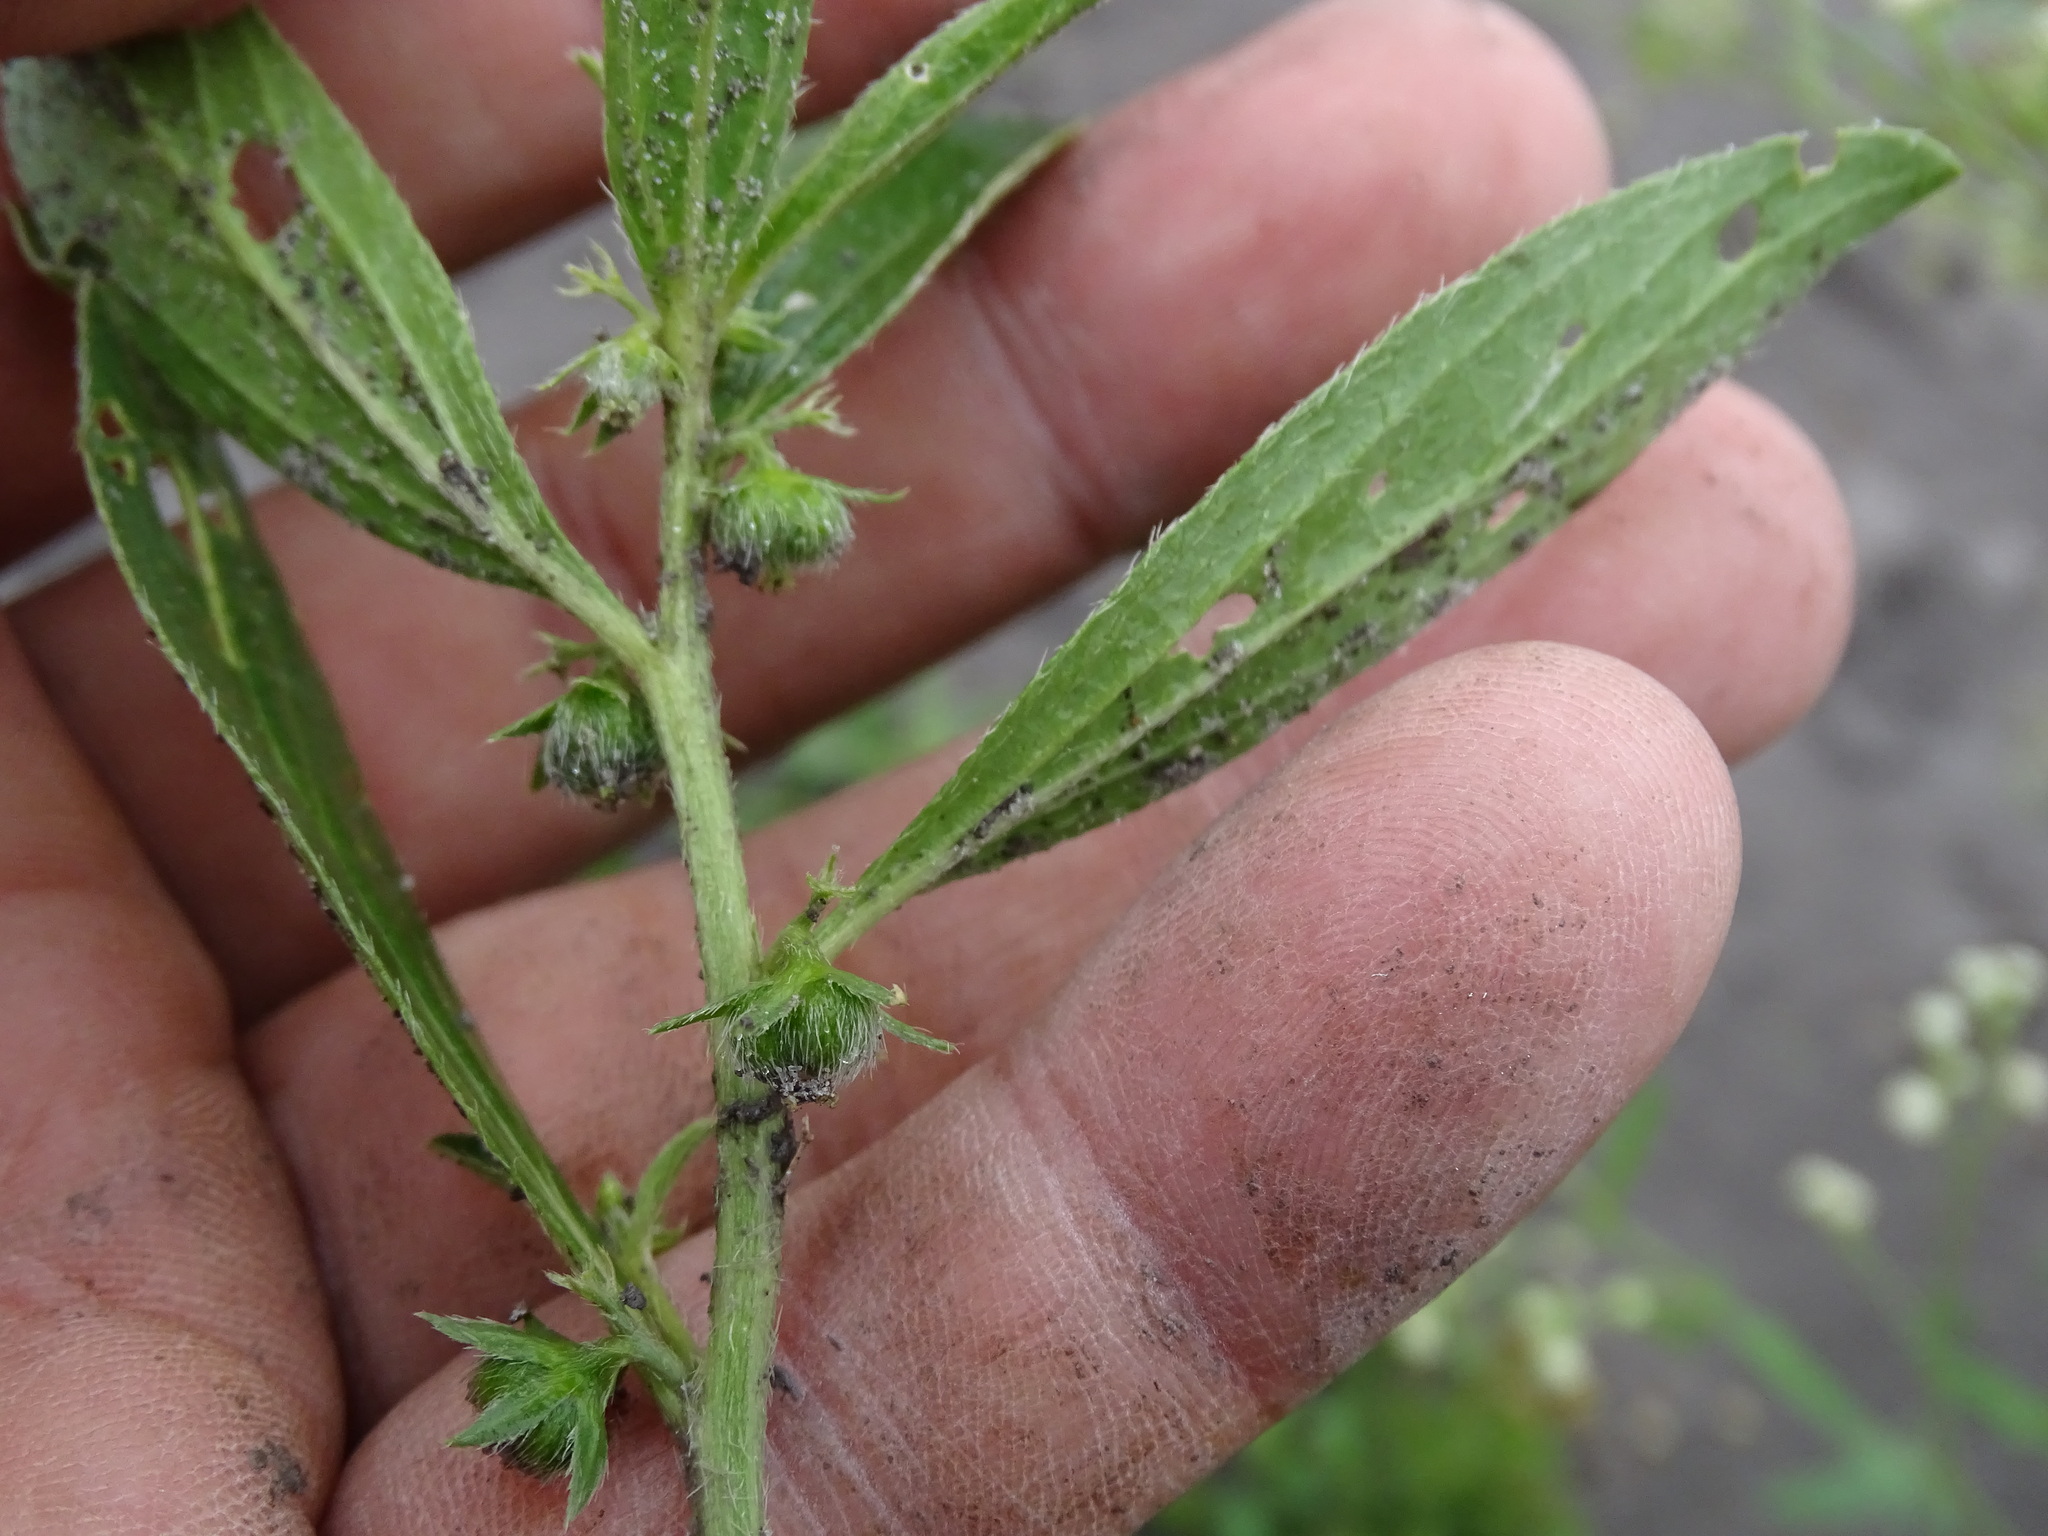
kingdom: Plantae
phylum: Tracheophyta
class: Magnoliopsida
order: Malpighiales
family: Euphorbiaceae
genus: Ditaxis
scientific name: Ditaxis humilis
